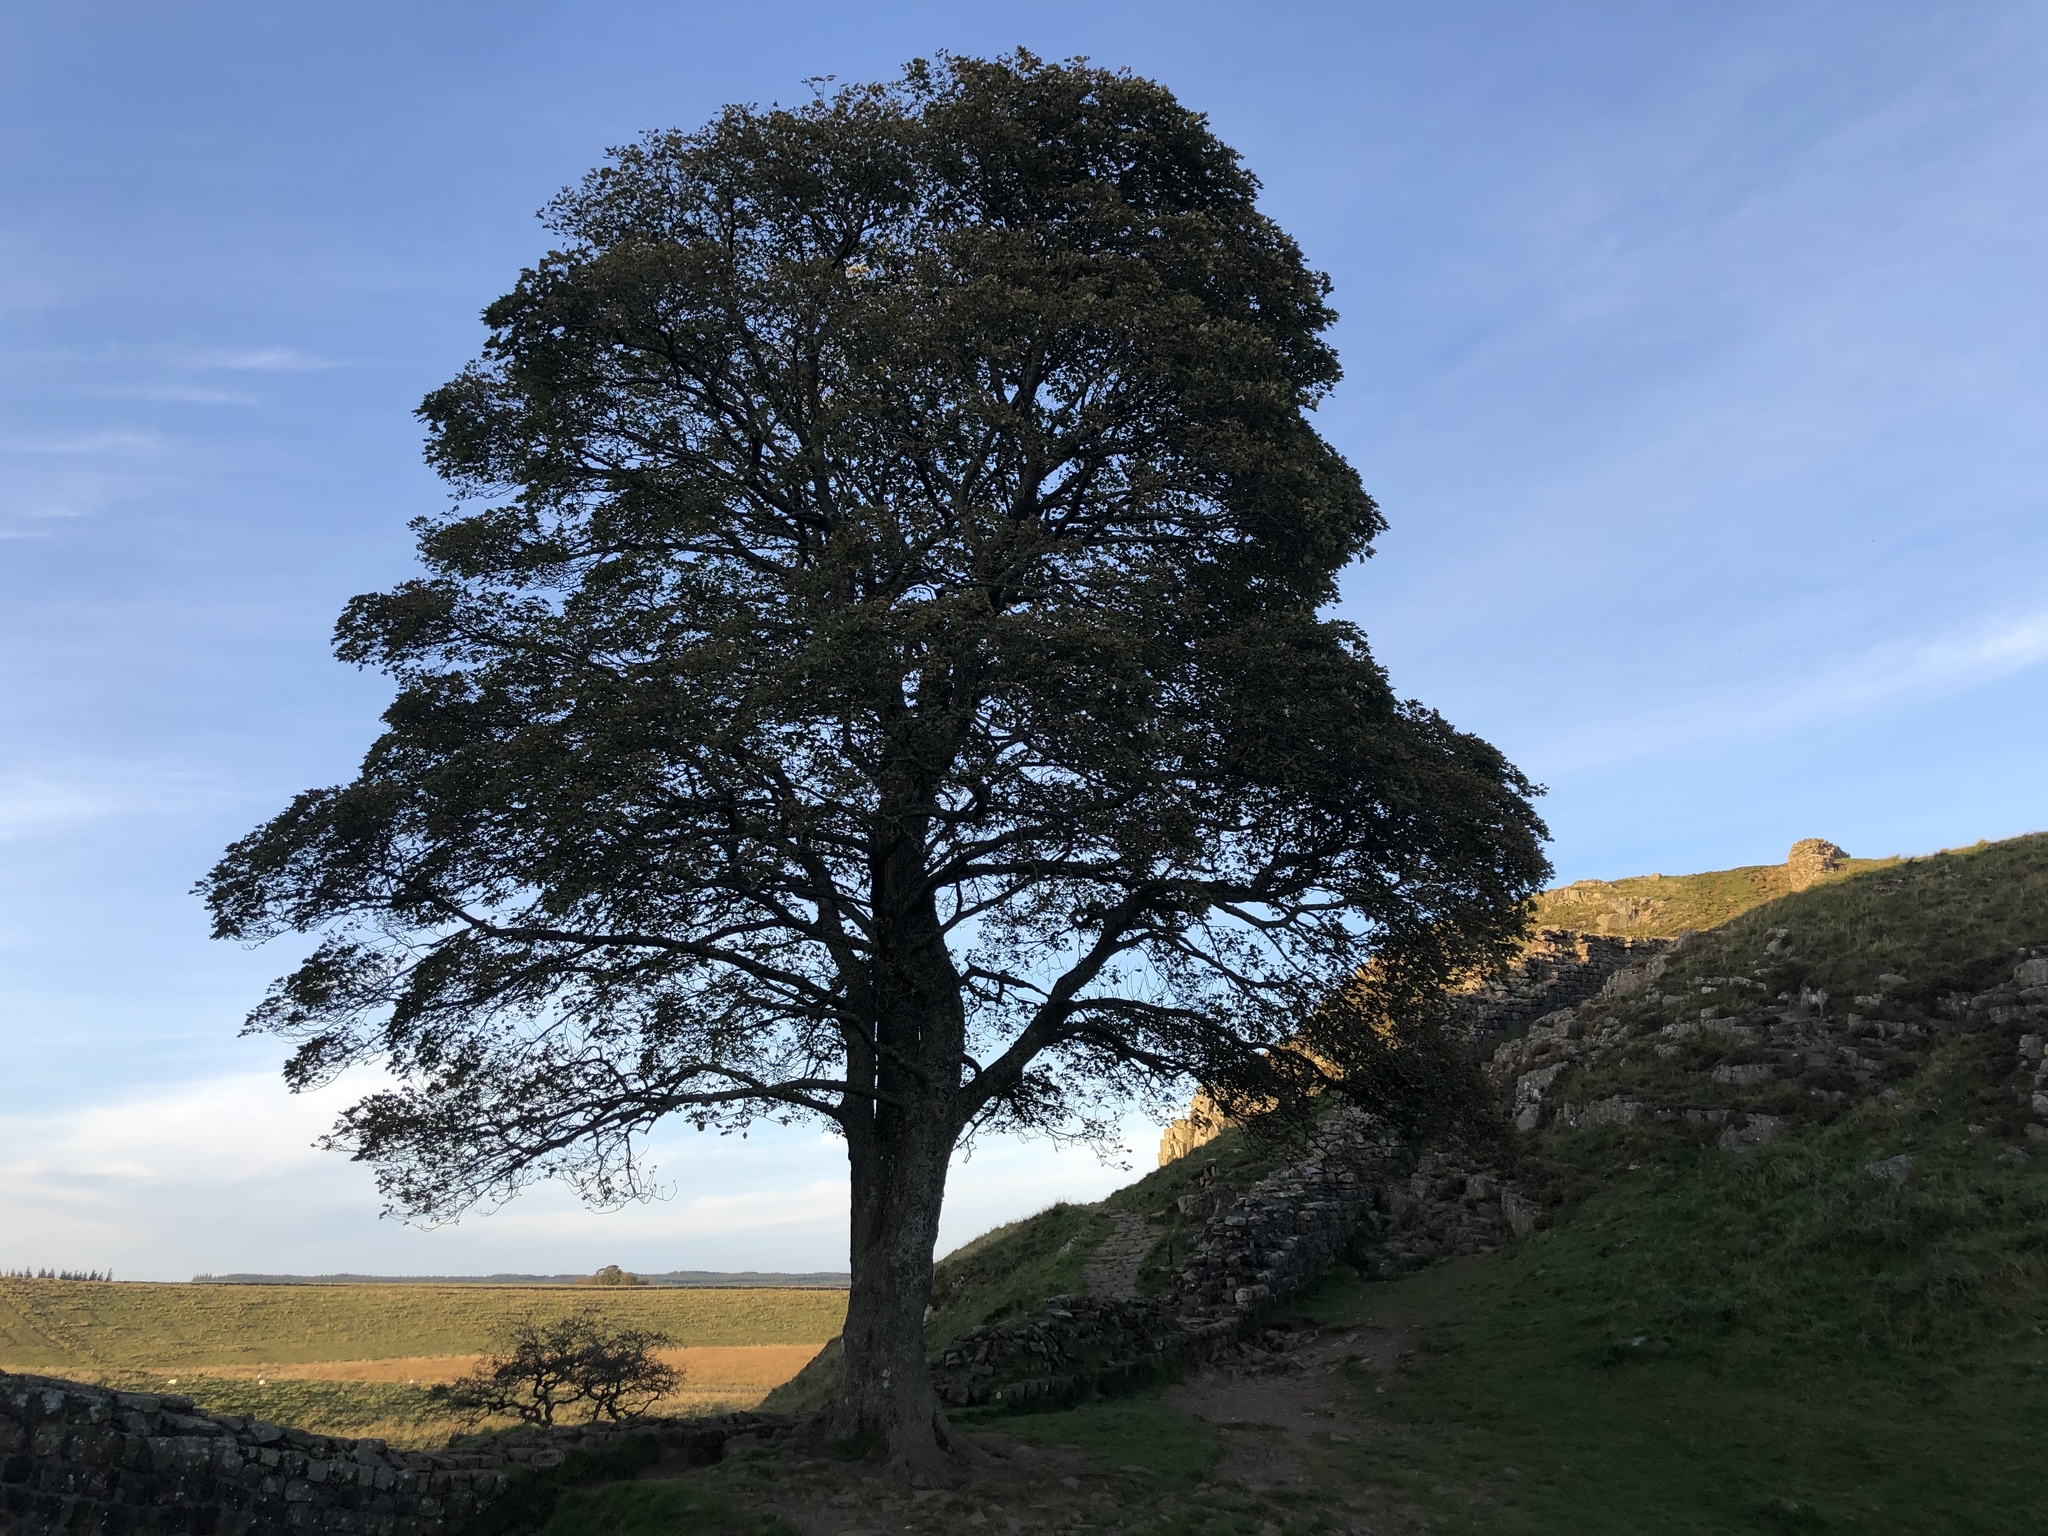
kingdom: Plantae
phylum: Tracheophyta
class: Magnoliopsida
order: Sapindales
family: Sapindaceae
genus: Acer
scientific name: Acer pseudoplatanus
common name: Sycamore
